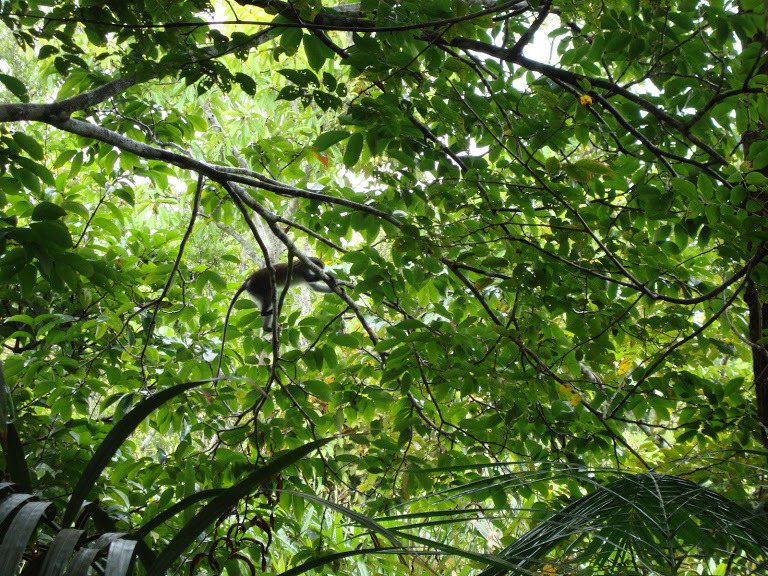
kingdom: Animalia
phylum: Chordata
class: Mammalia
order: Primates
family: Cercopithecidae
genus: Cercopithecus
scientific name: Cercopithecus mona
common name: Mona monkey
